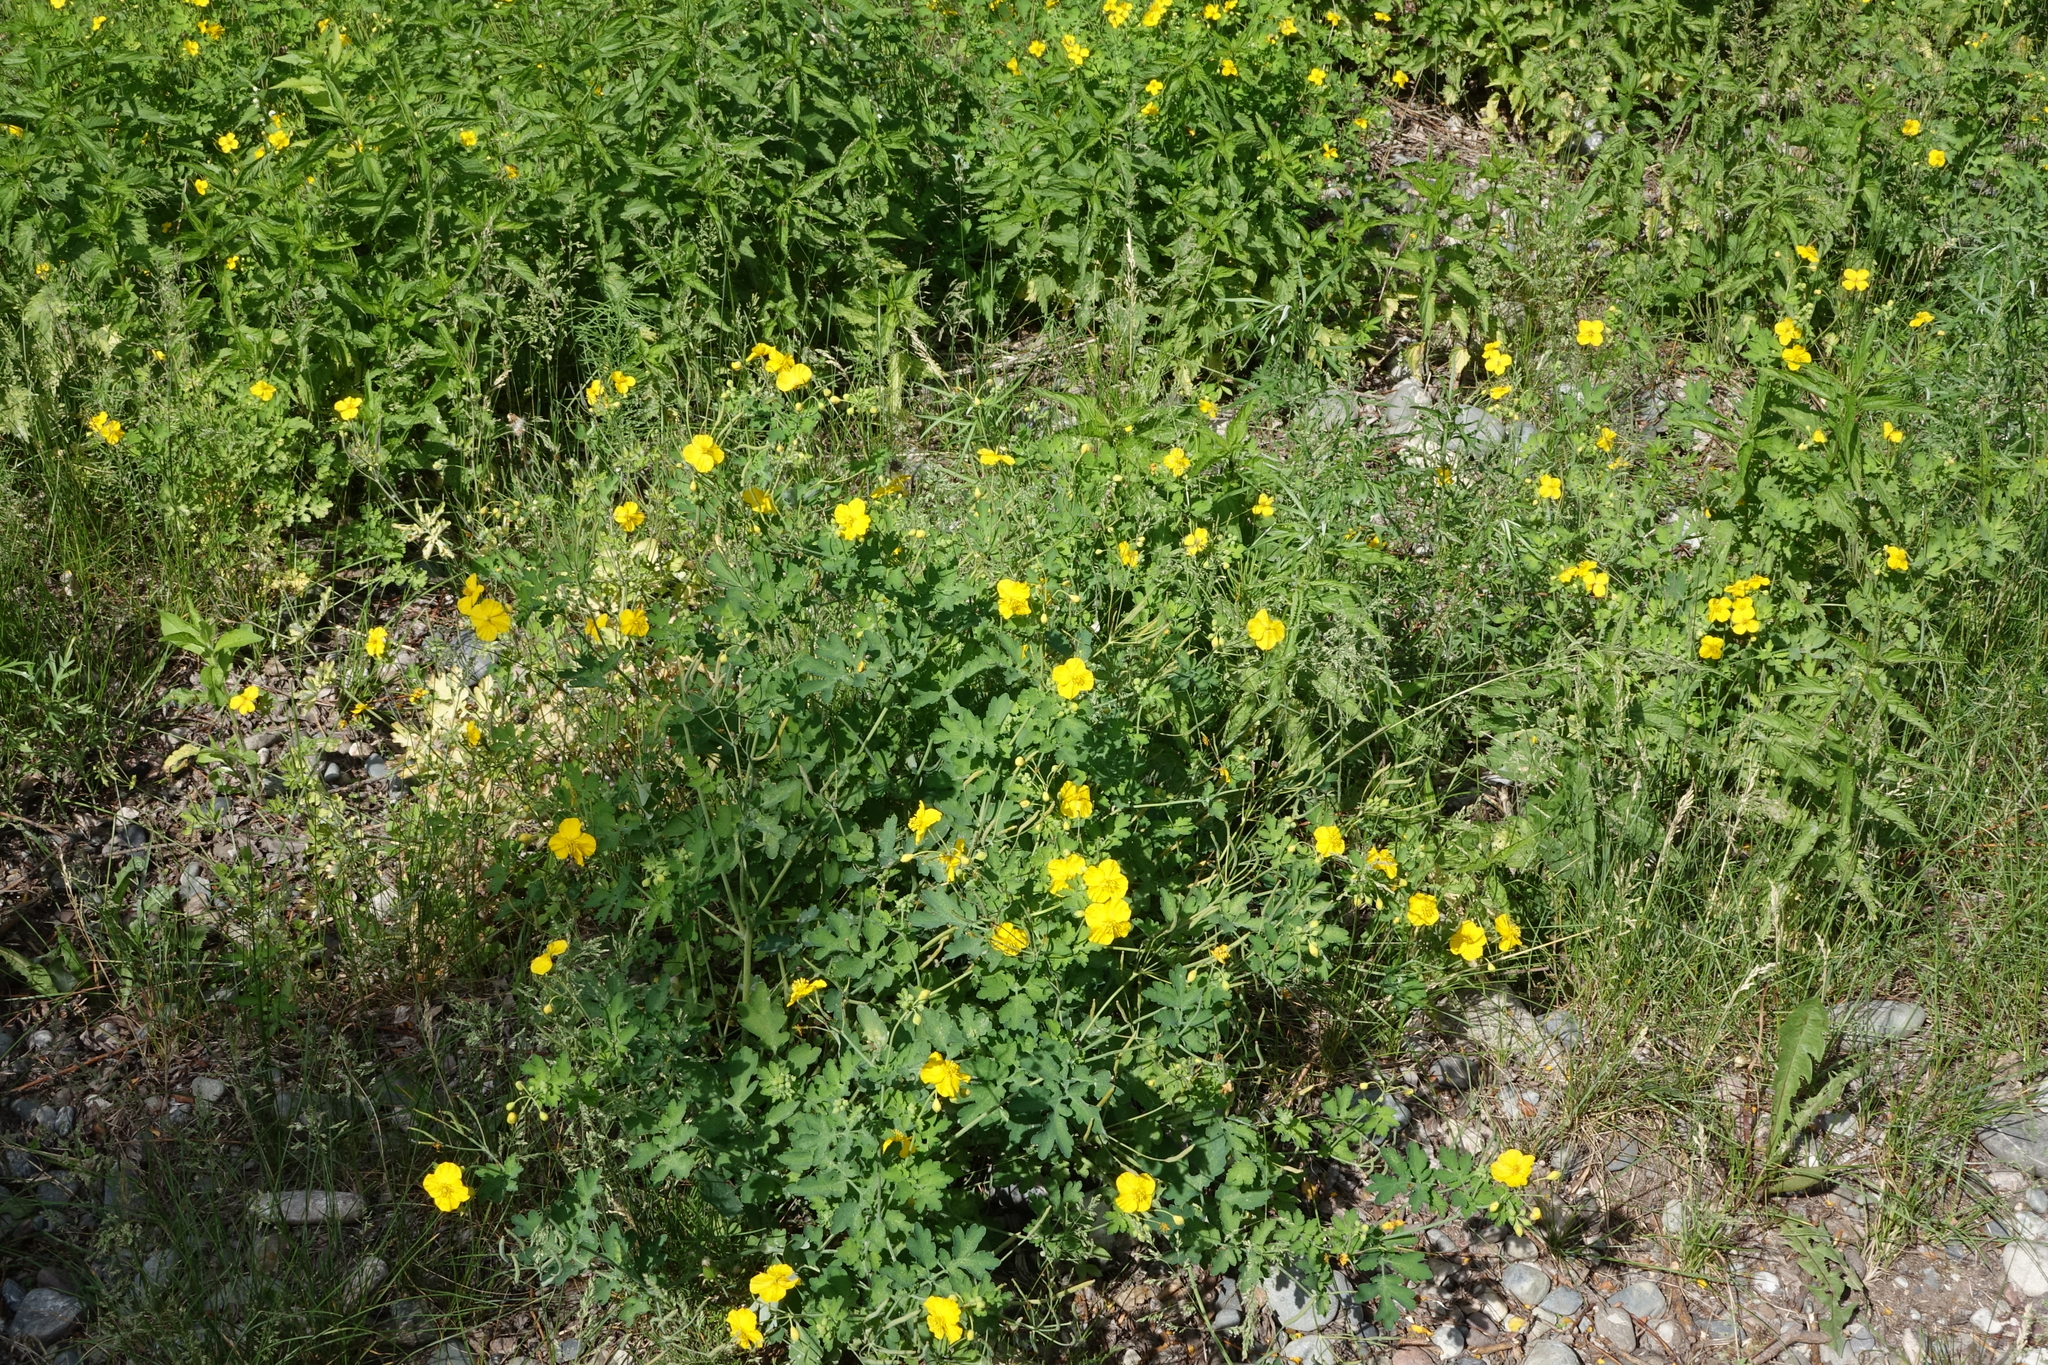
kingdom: Plantae
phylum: Tracheophyta
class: Magnoliopsida
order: Ranunculales
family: Papaveraceae
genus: Chelidonium
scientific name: Chelidonium majus
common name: Greater celandine
